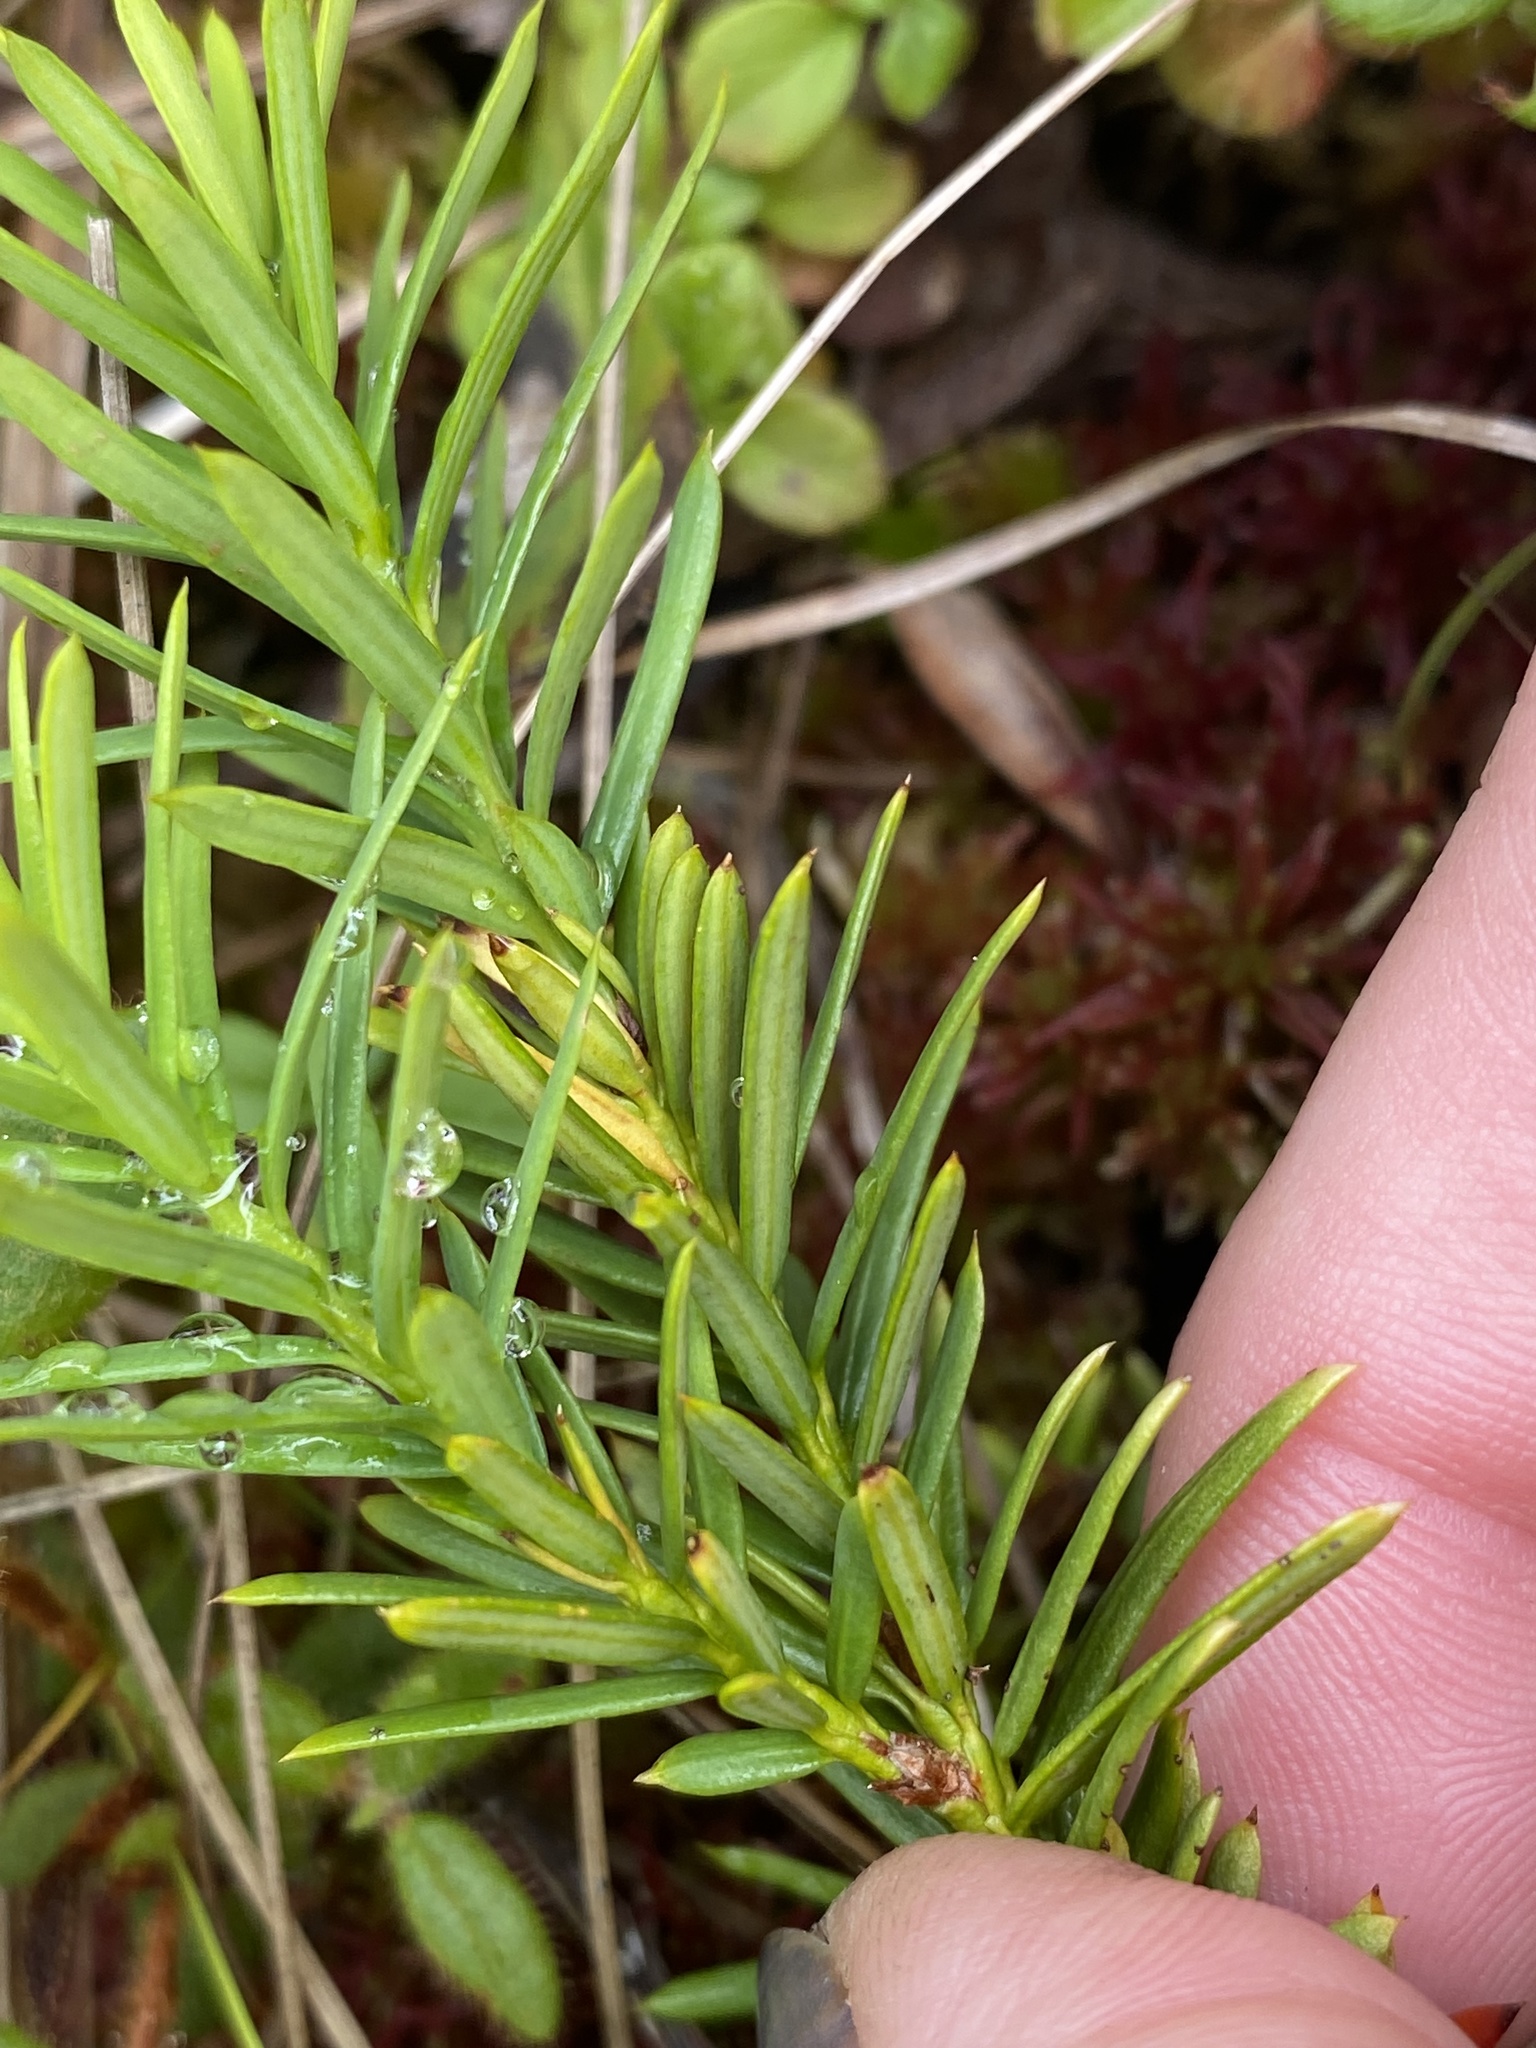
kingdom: Plantae
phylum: Tracheophyta
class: Pinopsida
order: Pinales
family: Taxaceae
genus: Taxus
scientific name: Taxus canadensis
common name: American yew
